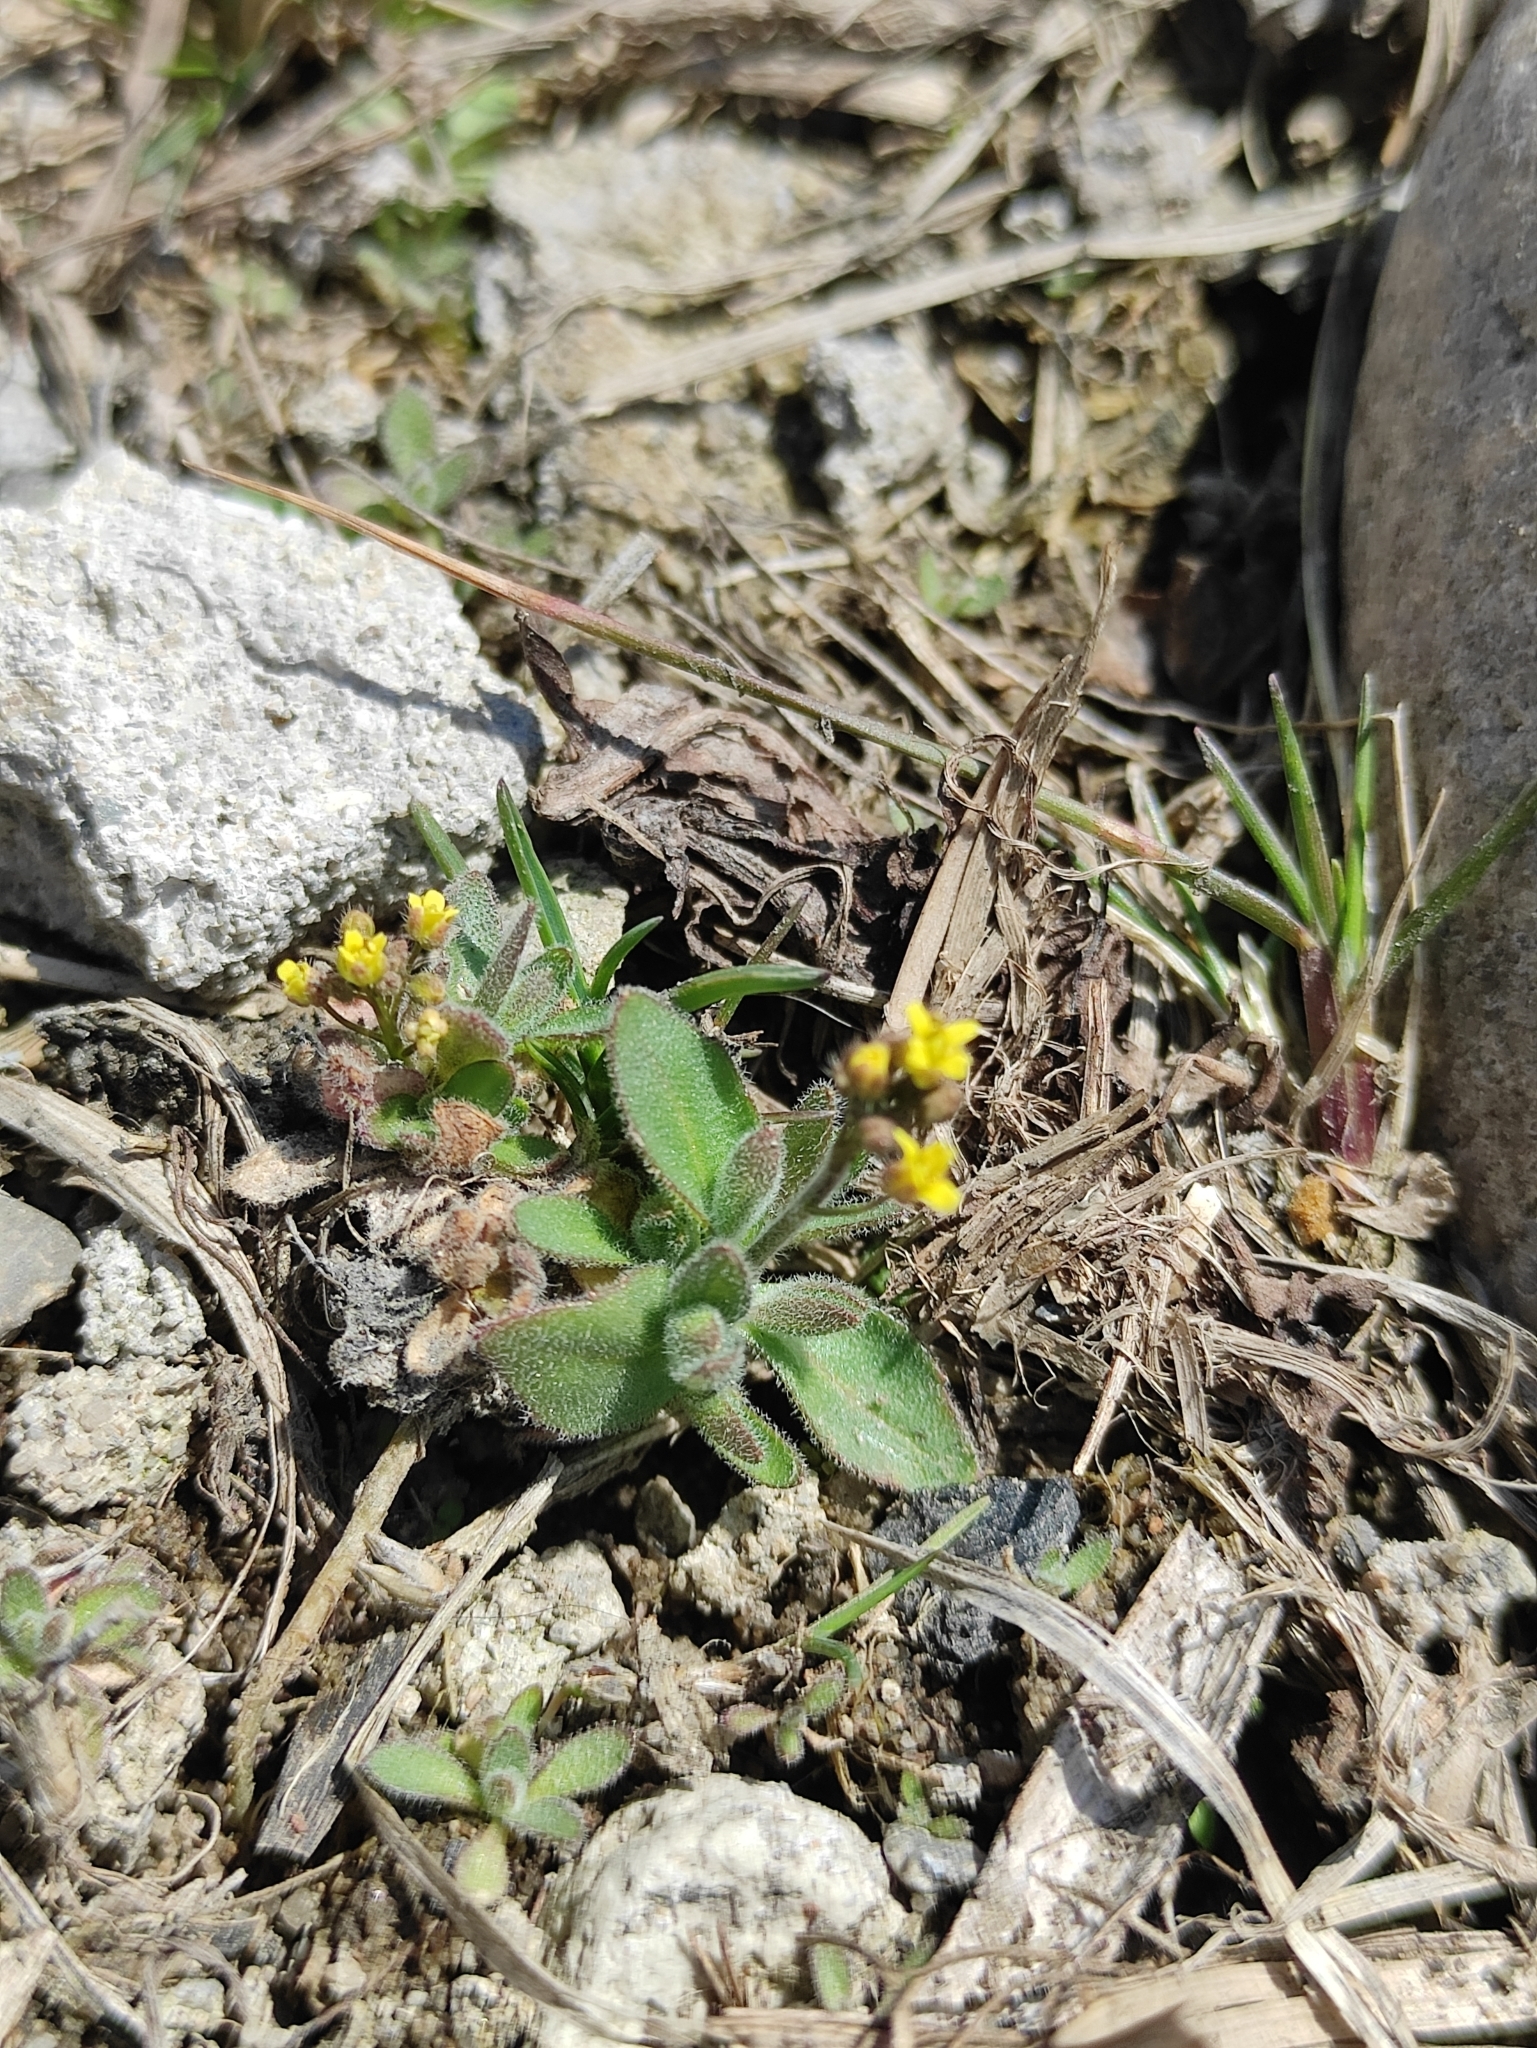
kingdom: Plantae
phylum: Tracheophyta
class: Magnoliopsida
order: Brassicales
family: Brassicaceae
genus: Draba
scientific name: Draba nemorosa
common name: Wood whitlow-grass
